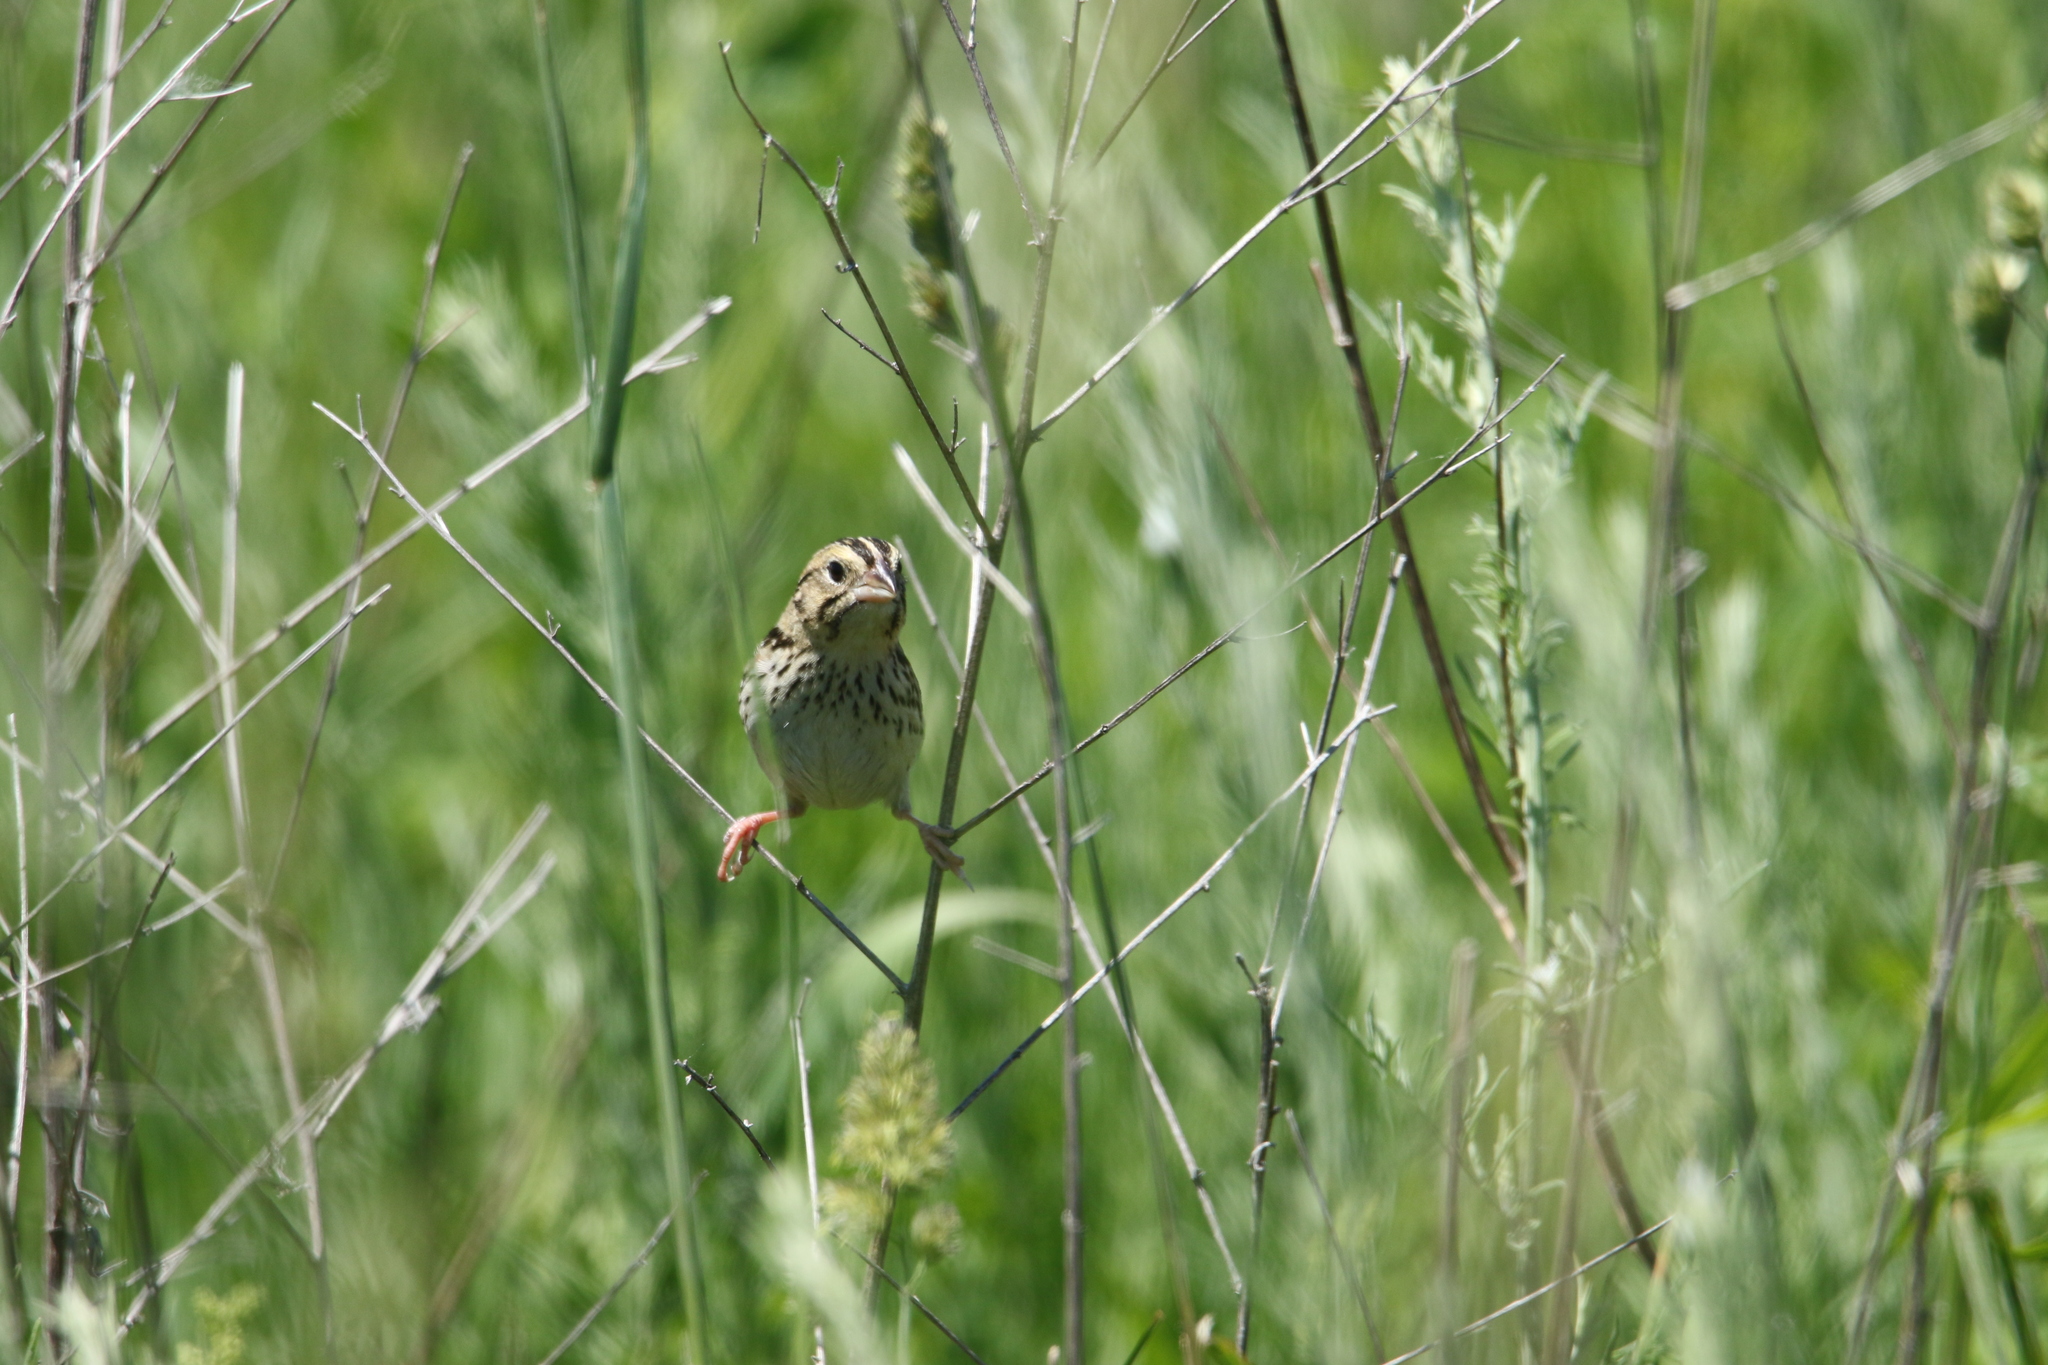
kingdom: Animalia
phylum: Chordata
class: Aves
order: Passeriformes
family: Passerellidae
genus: Centronyx
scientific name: Centronyx henslowii
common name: Henslow's sparrow
